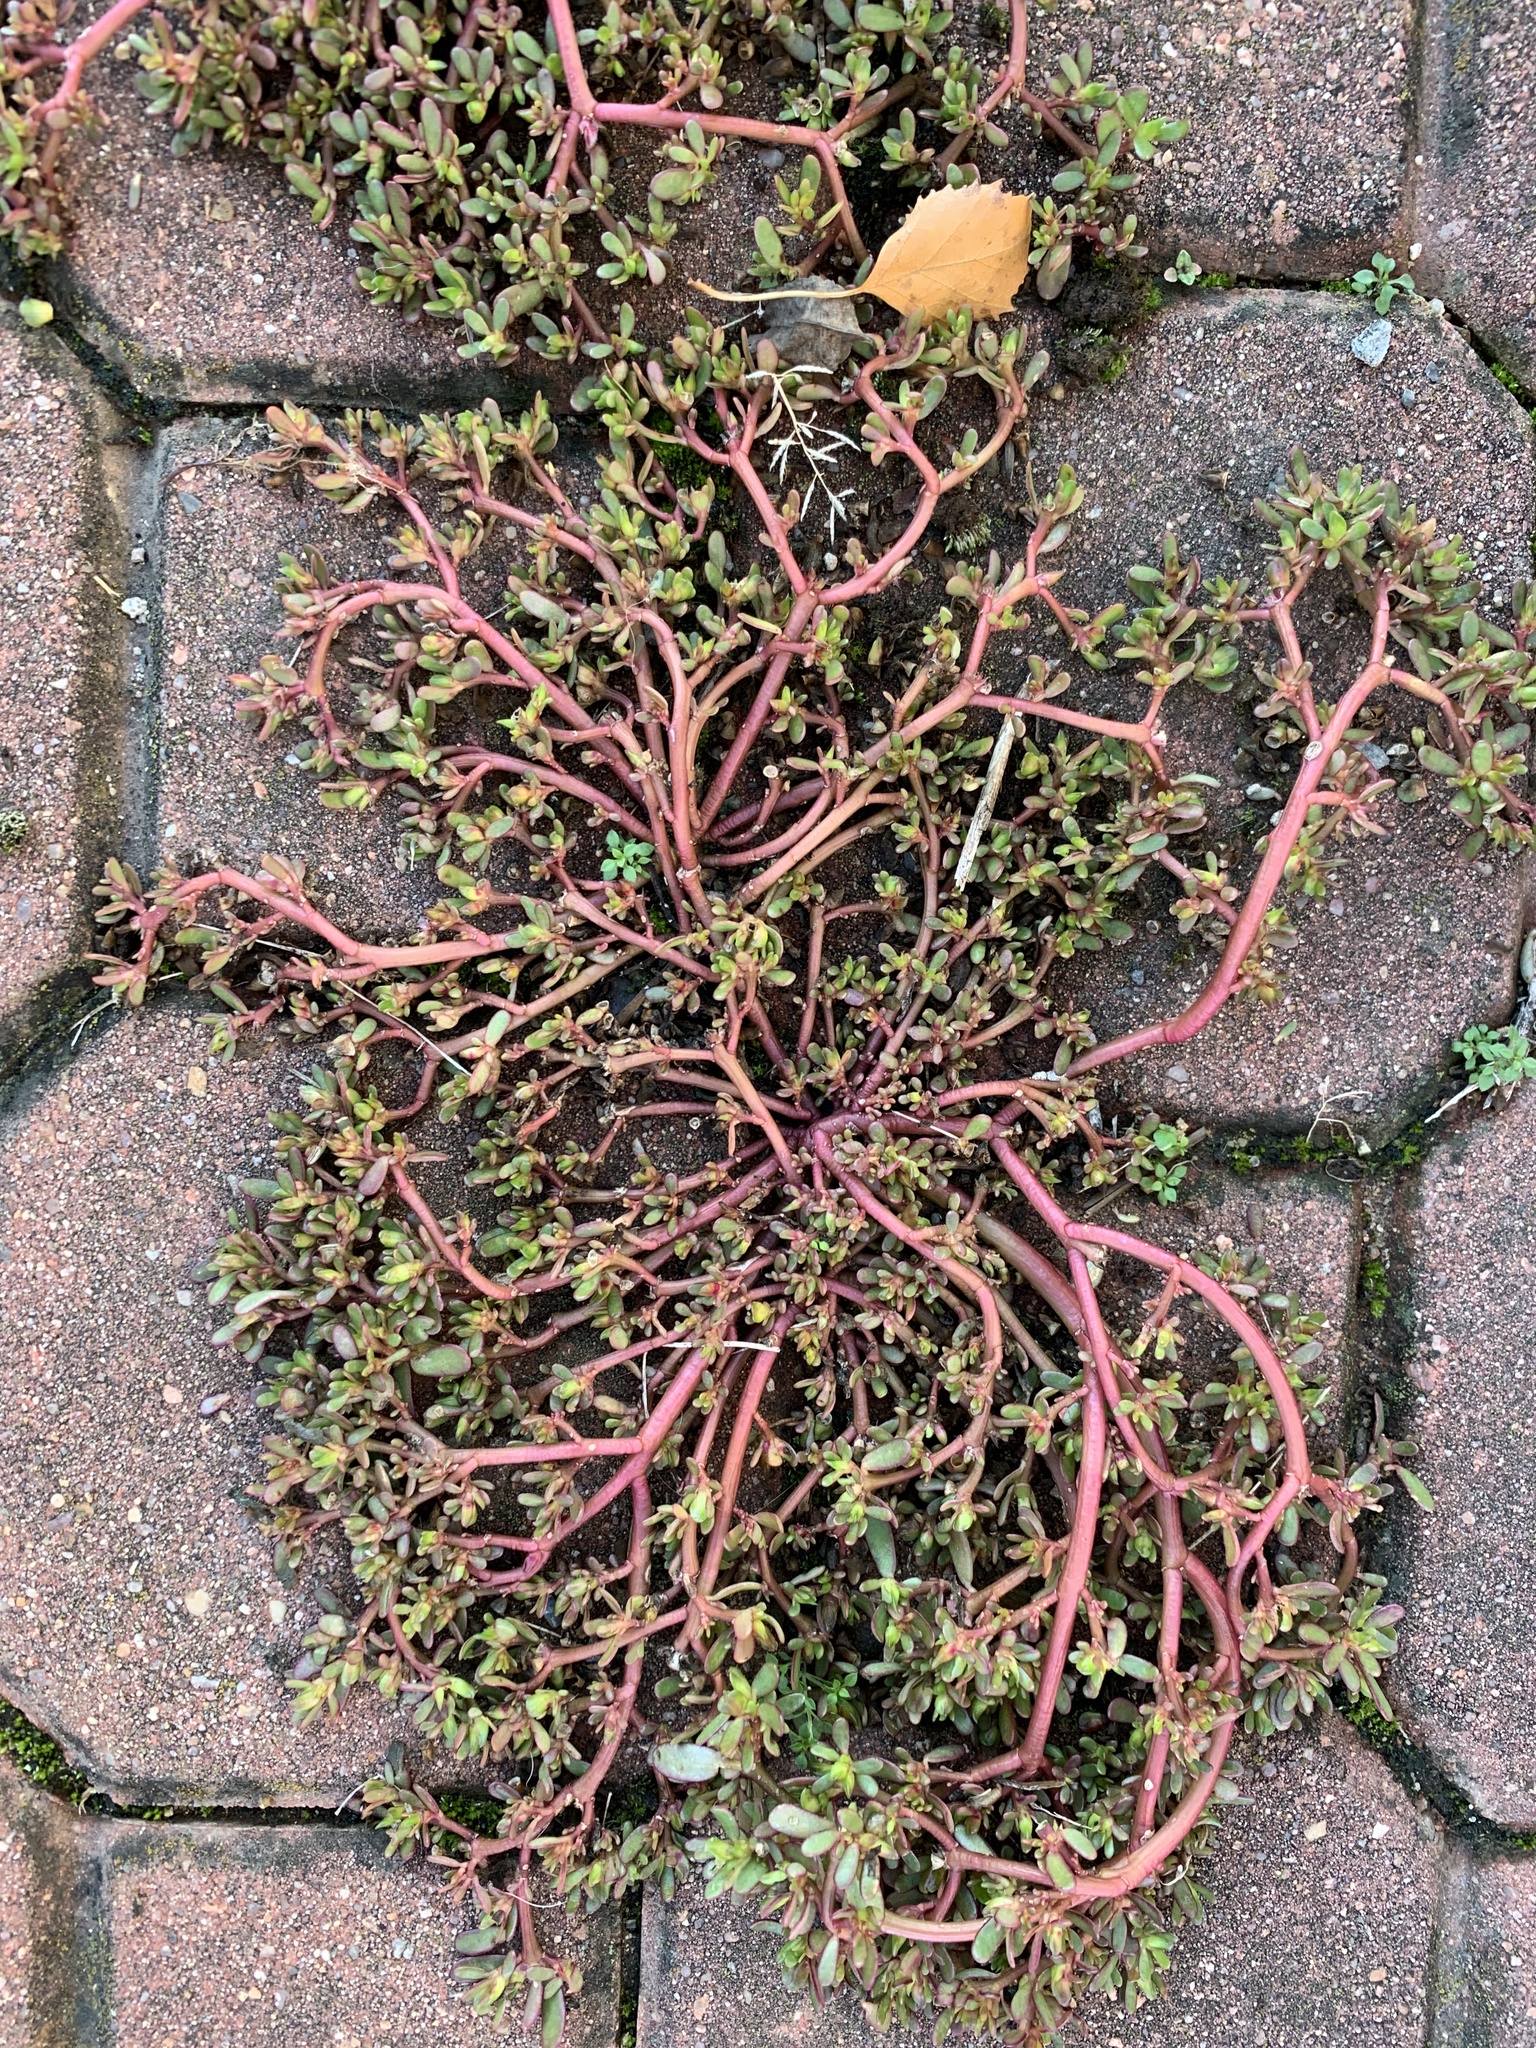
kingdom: Plantae
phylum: Tracheophyta
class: Magnoliopsida
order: Caryophyllales
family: Portulacaceae
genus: Portulaca
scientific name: Portulaca oleracea
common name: Common purslane
